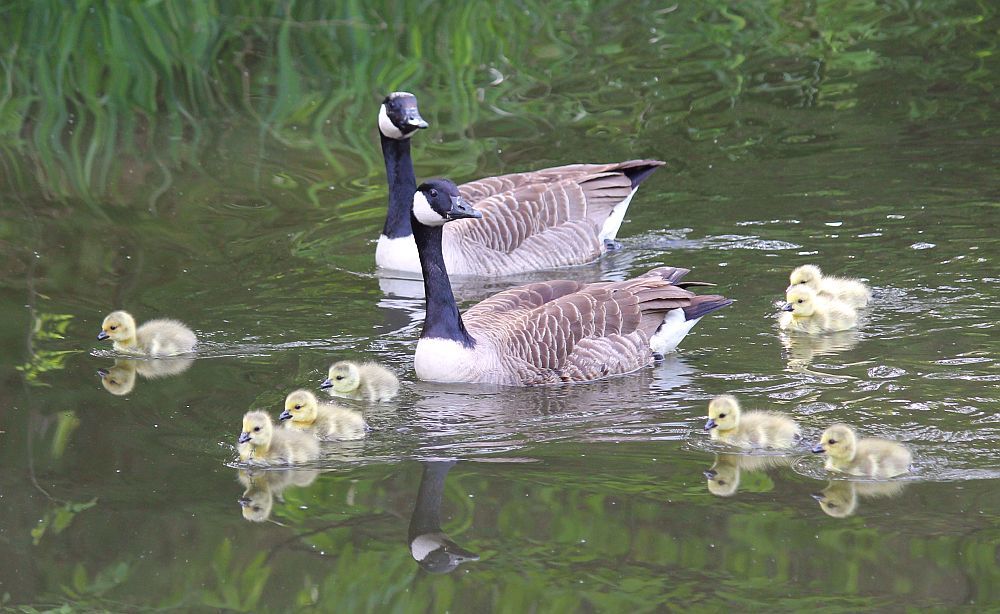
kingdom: Animalia
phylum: Chordata
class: Aves
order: Anseriformes
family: Anatidae
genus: Branta
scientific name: Branta canadensis
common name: Canada goose
